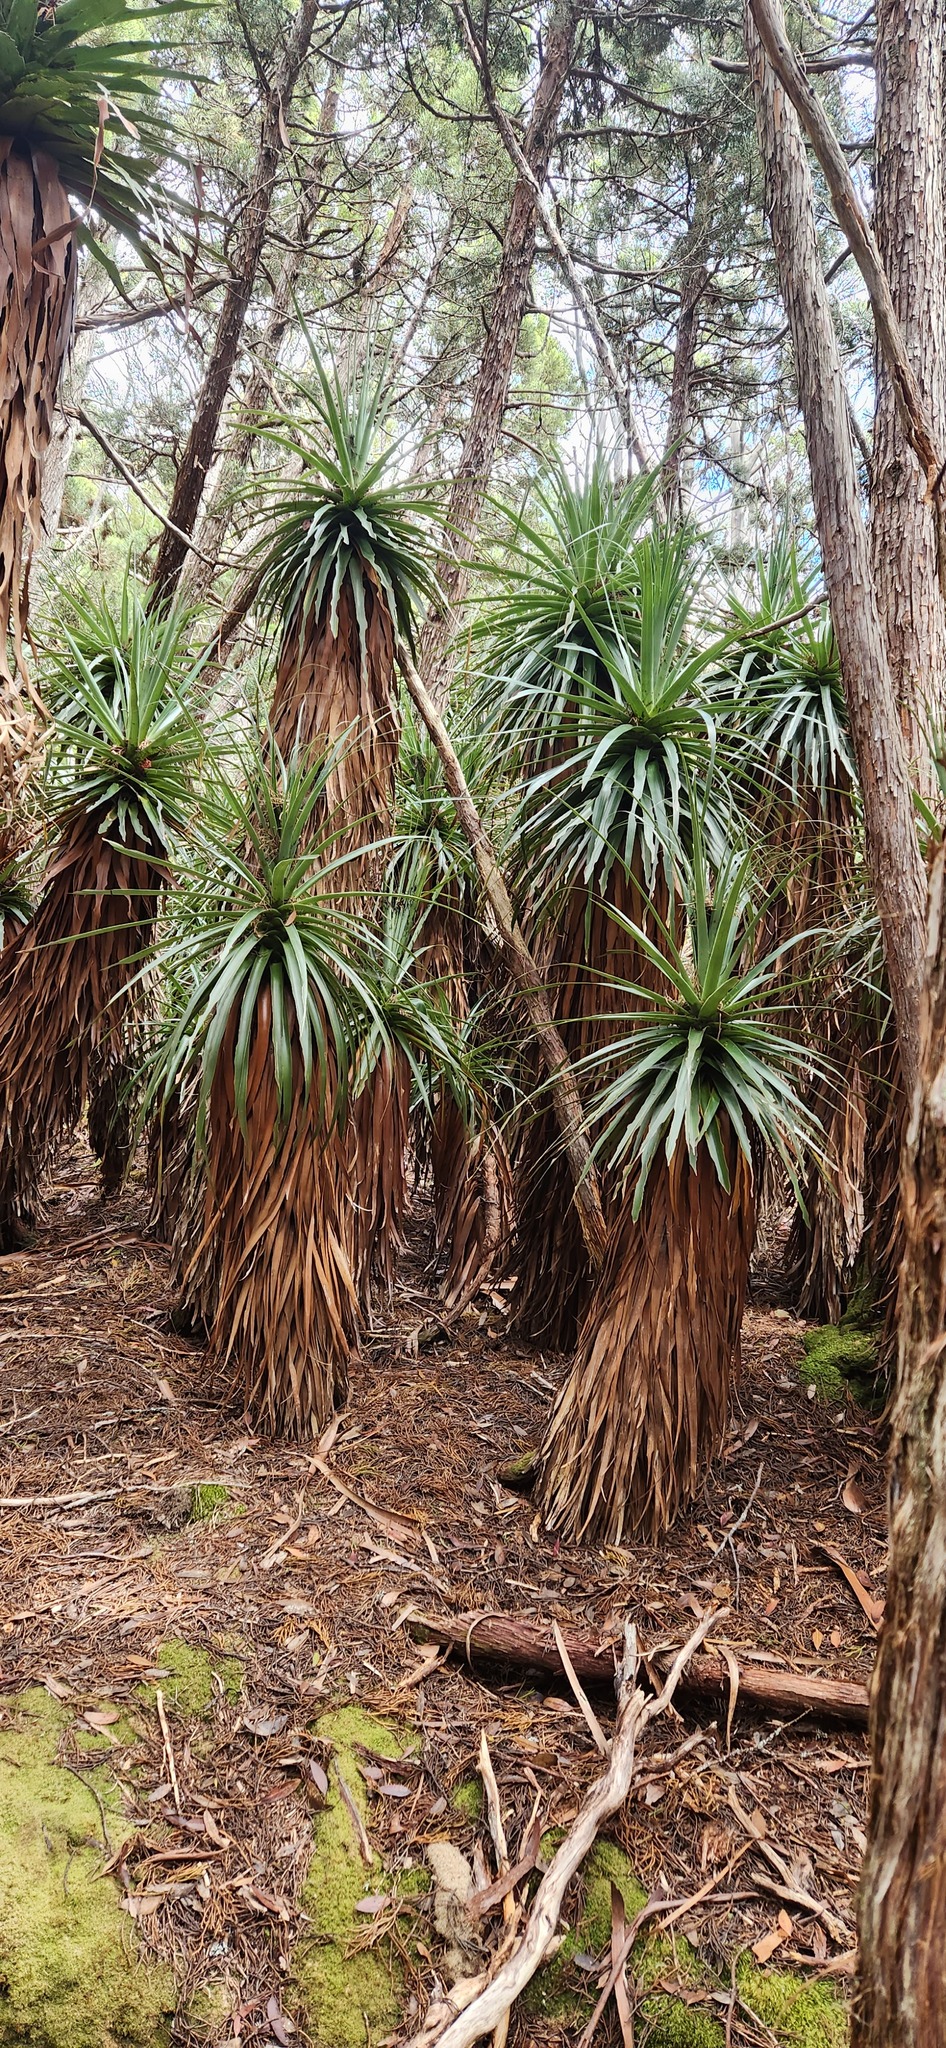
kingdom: Plantae
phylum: Tracheophyta
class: Magnoliopsida
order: Ericales
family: Ericaceae
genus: Dracophyllum
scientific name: Dracophyllum pandanifolium
